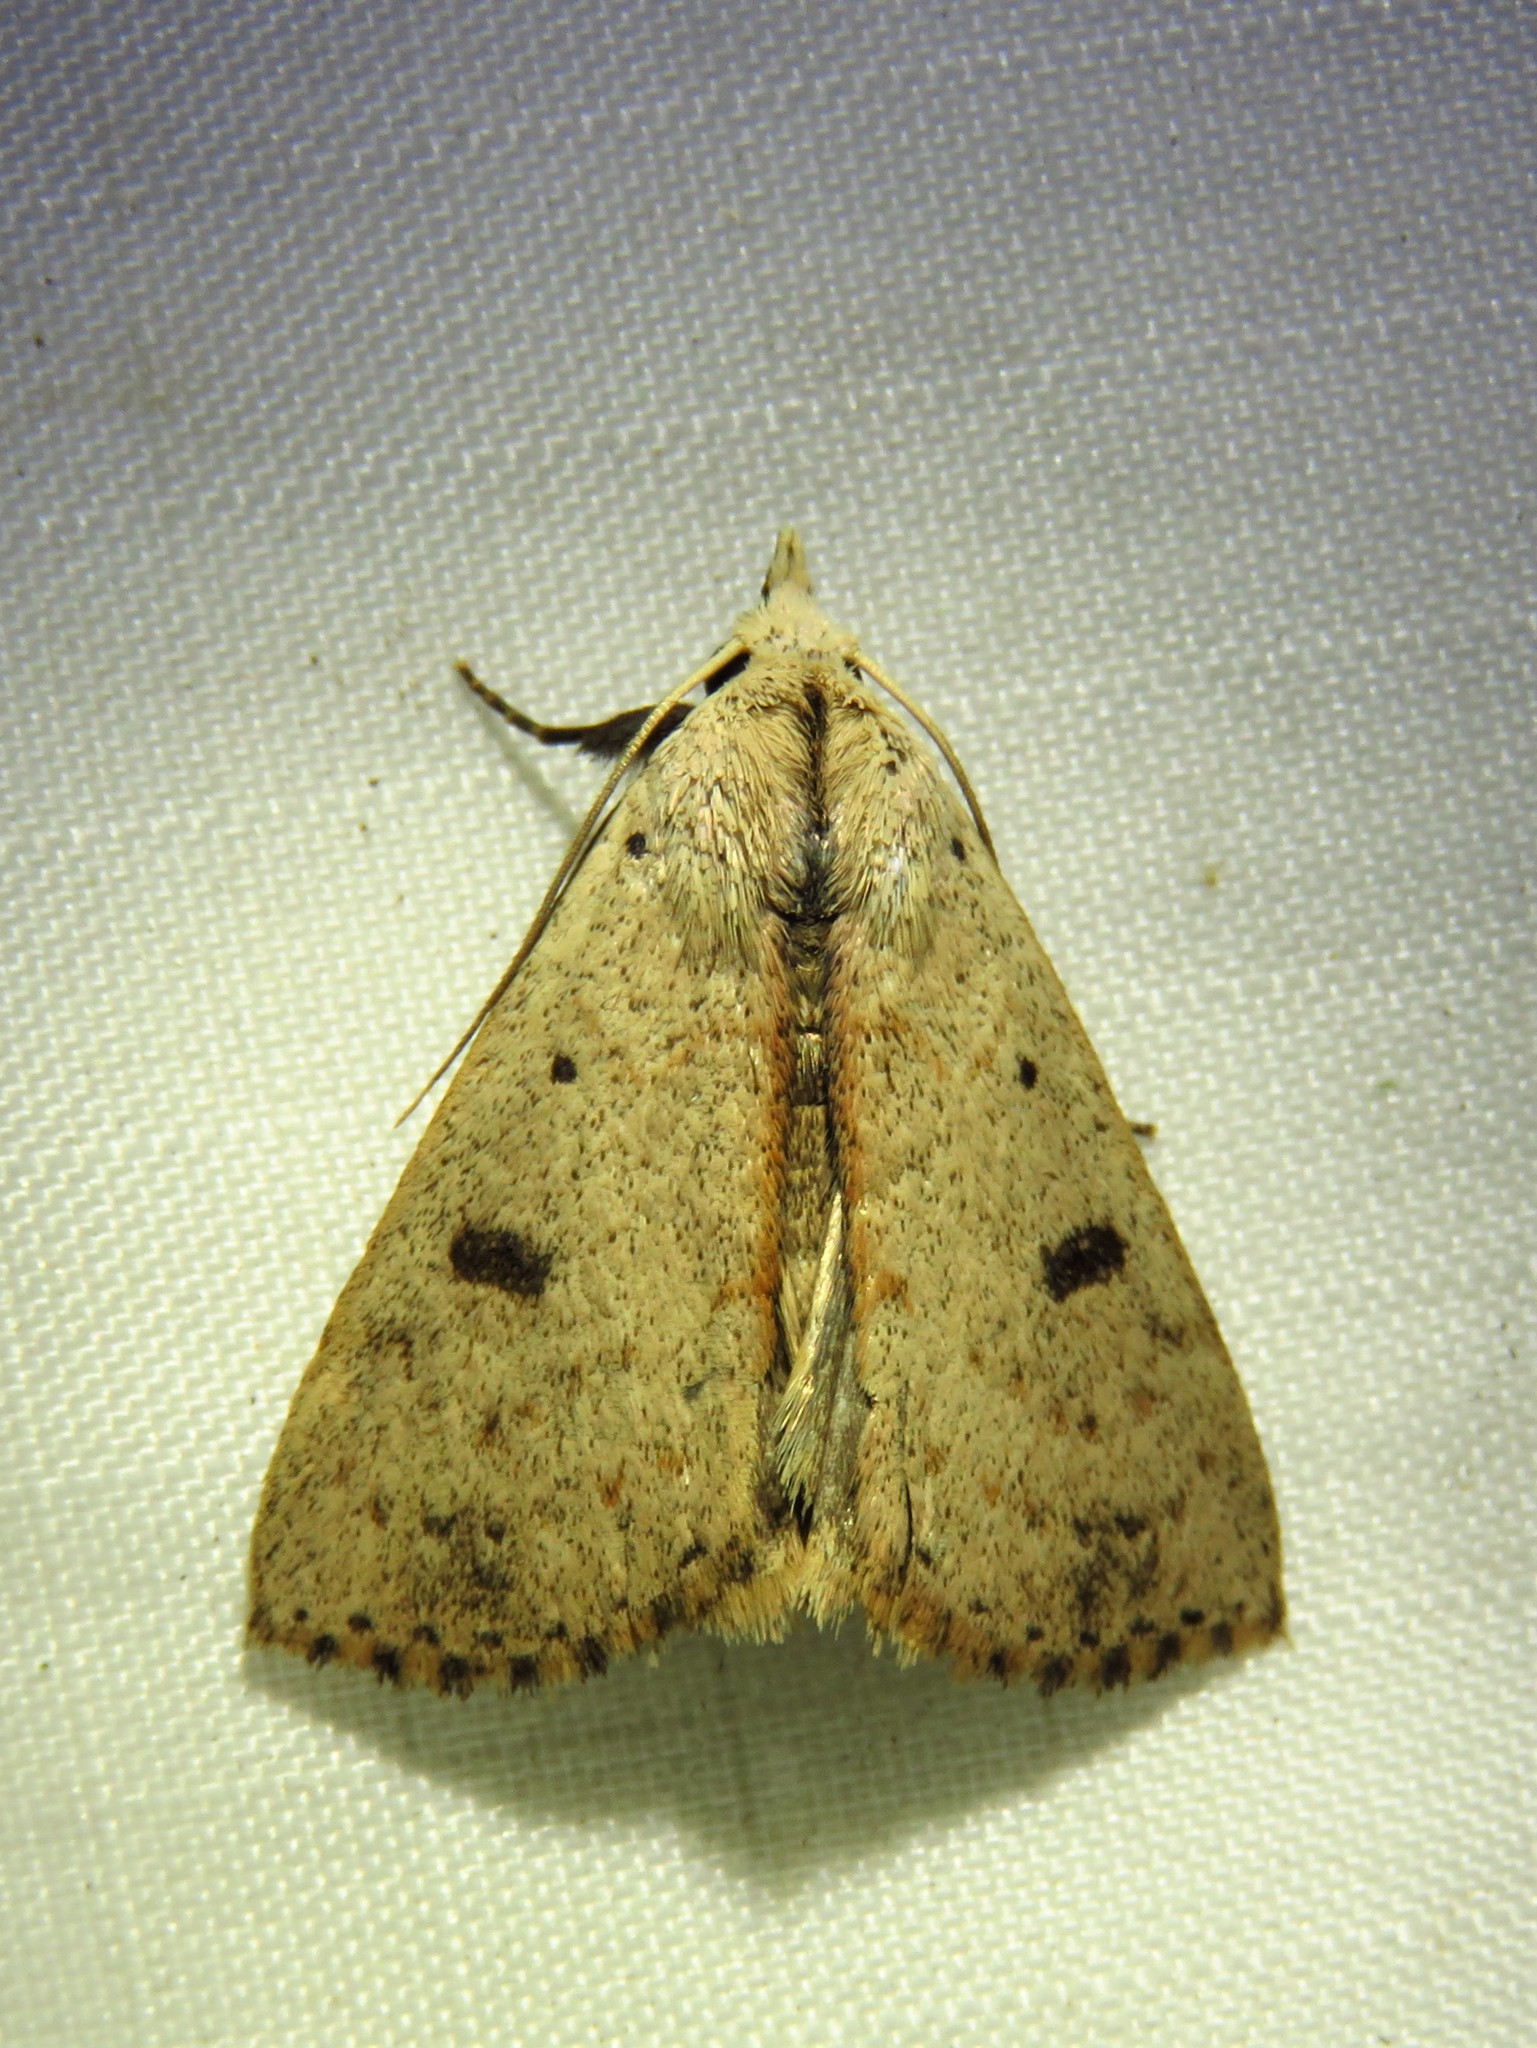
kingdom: Animalia
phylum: Arthropoda
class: Insecta
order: Lepidoptera
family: Erebidae
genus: Scolecocampa
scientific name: Scolecocampa liburna
